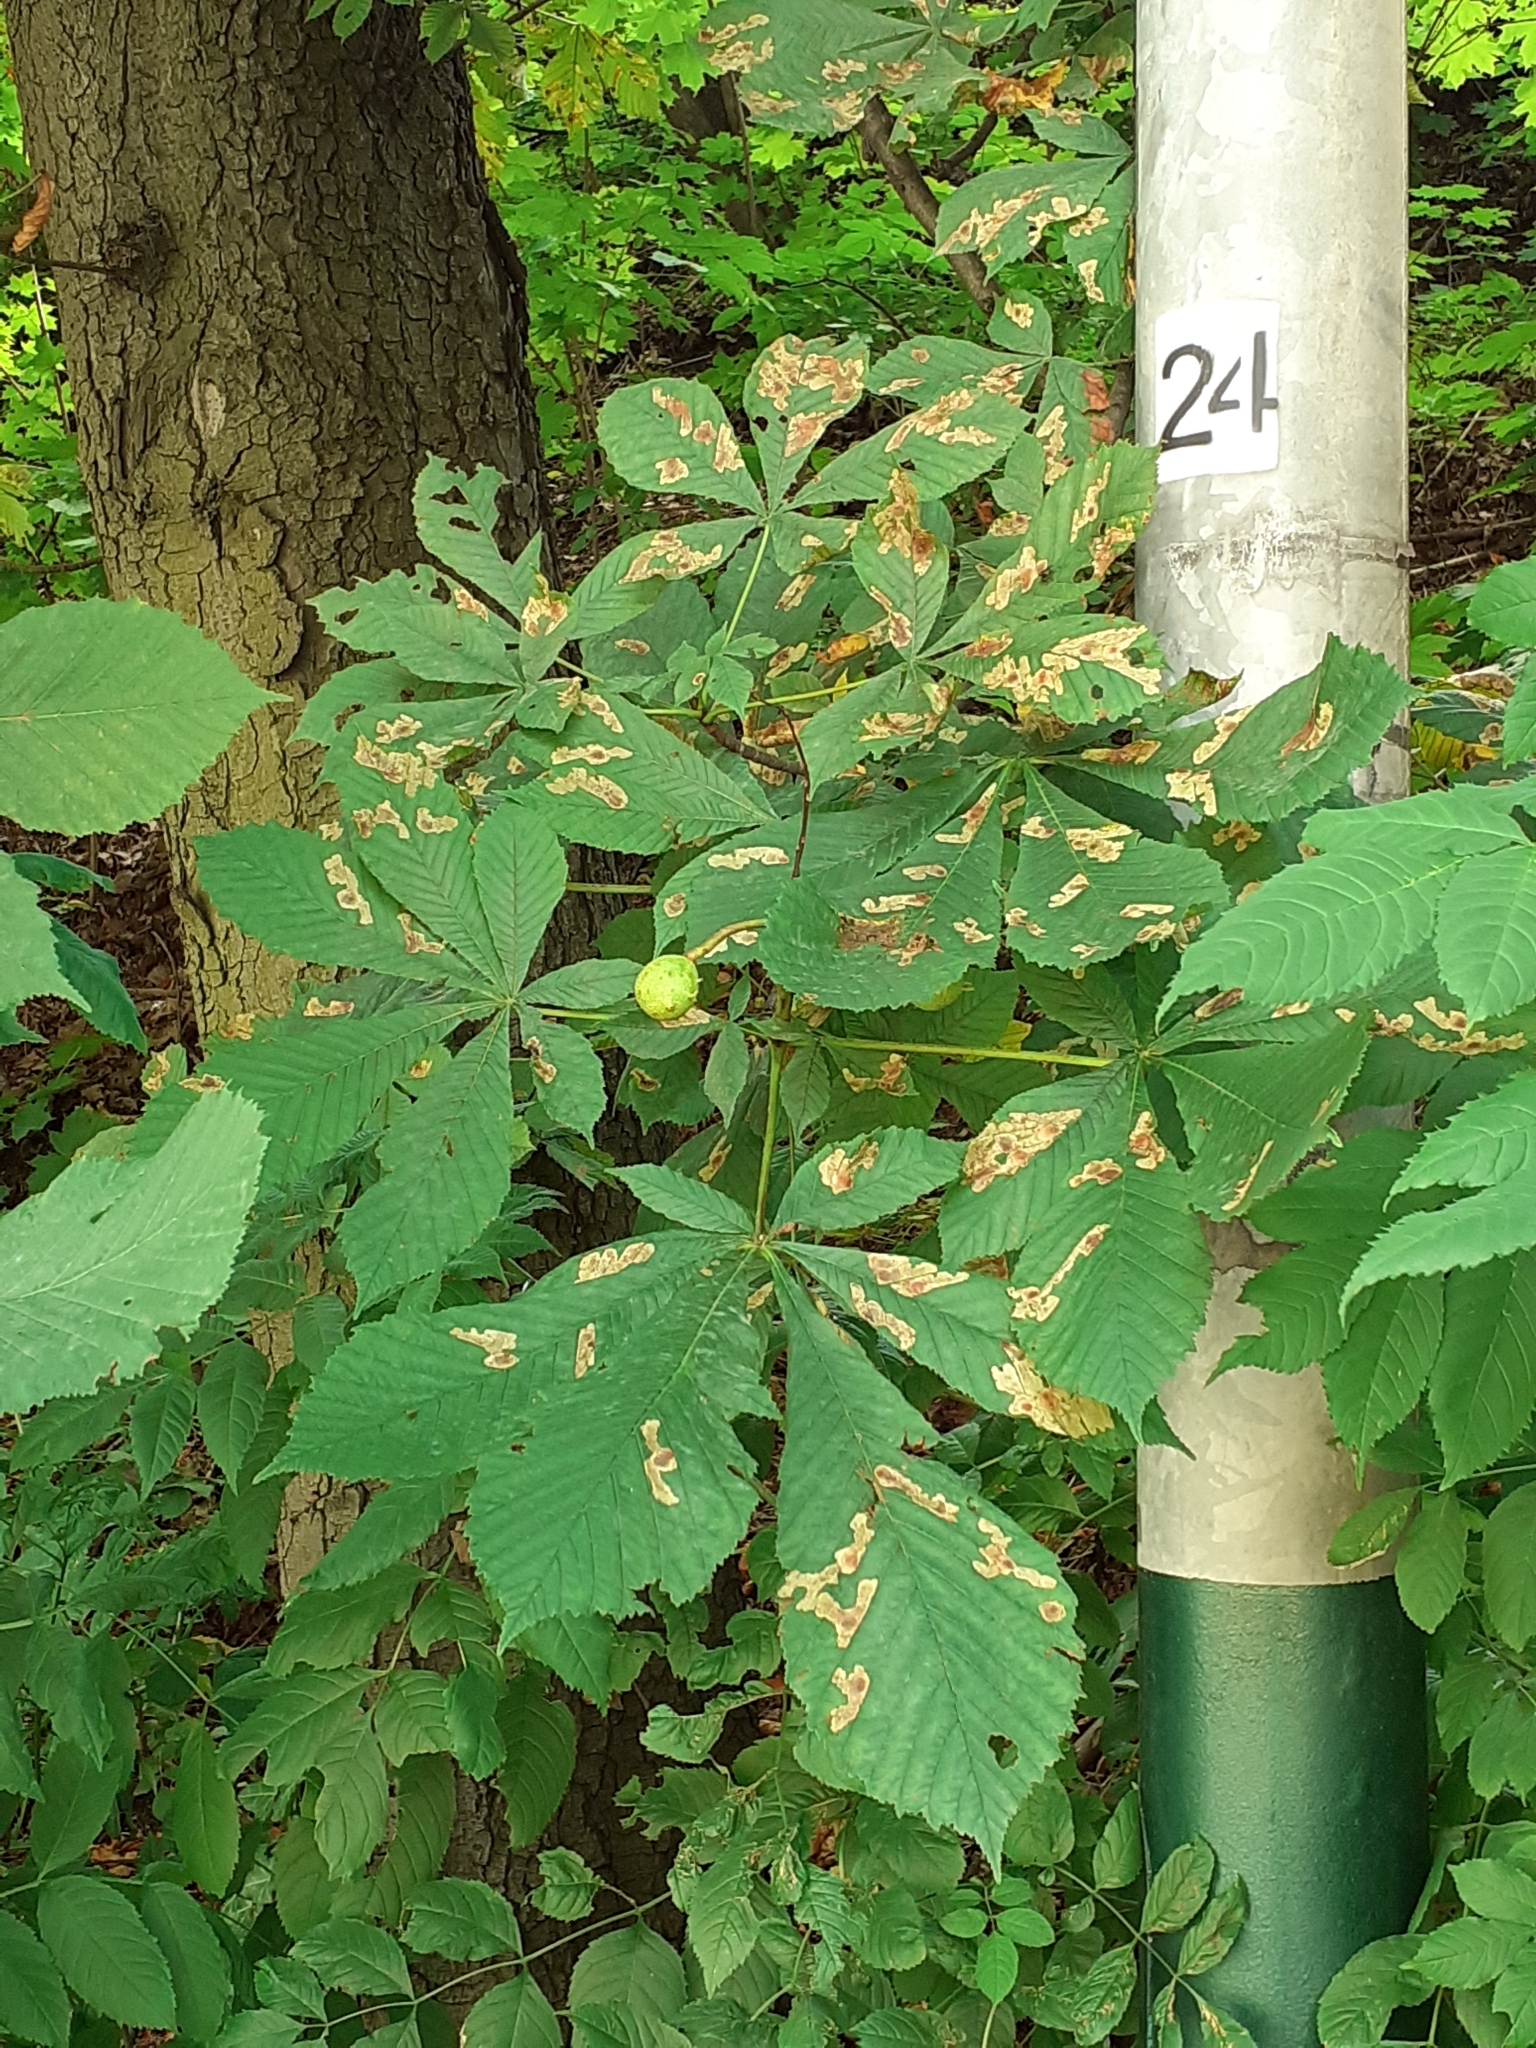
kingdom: Animalia
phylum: Arthropoda
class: Insecta
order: Lepidoptera
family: Gracillariidae
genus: Cameraria
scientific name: Cameraria ohridella
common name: Horse-chestnut leaf-miner
